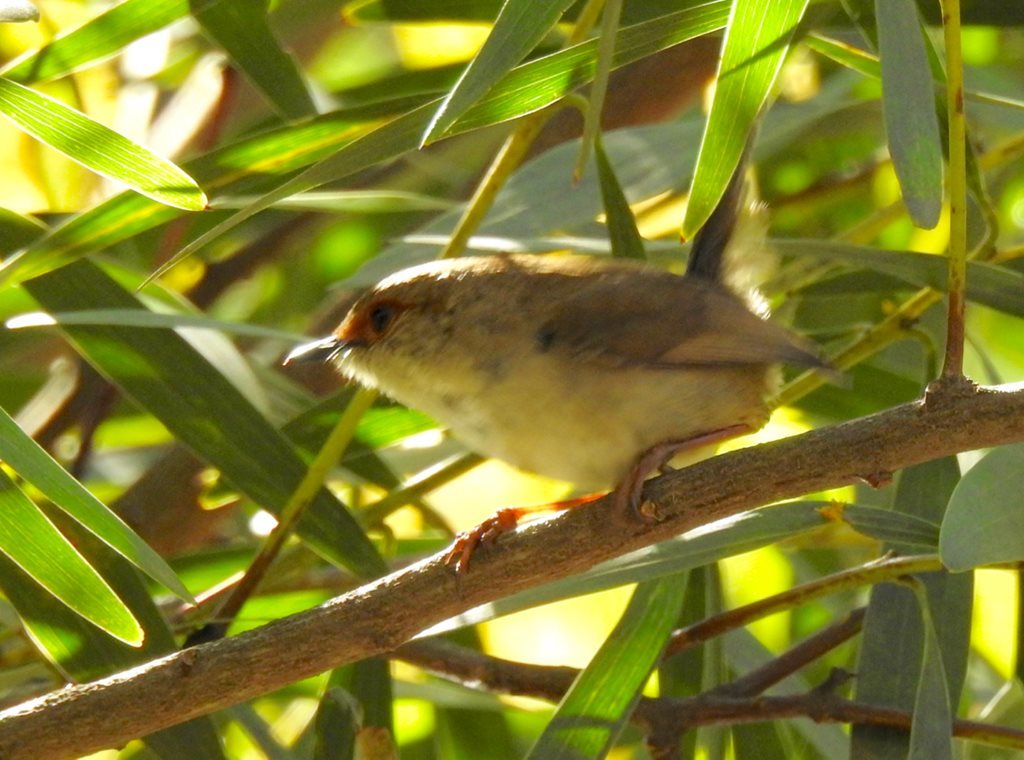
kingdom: Animalia
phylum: Chordata
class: Aves
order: Passeriformes
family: Maluridae
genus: Malurus
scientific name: Malurus cyaneus
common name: Superb fairywren
